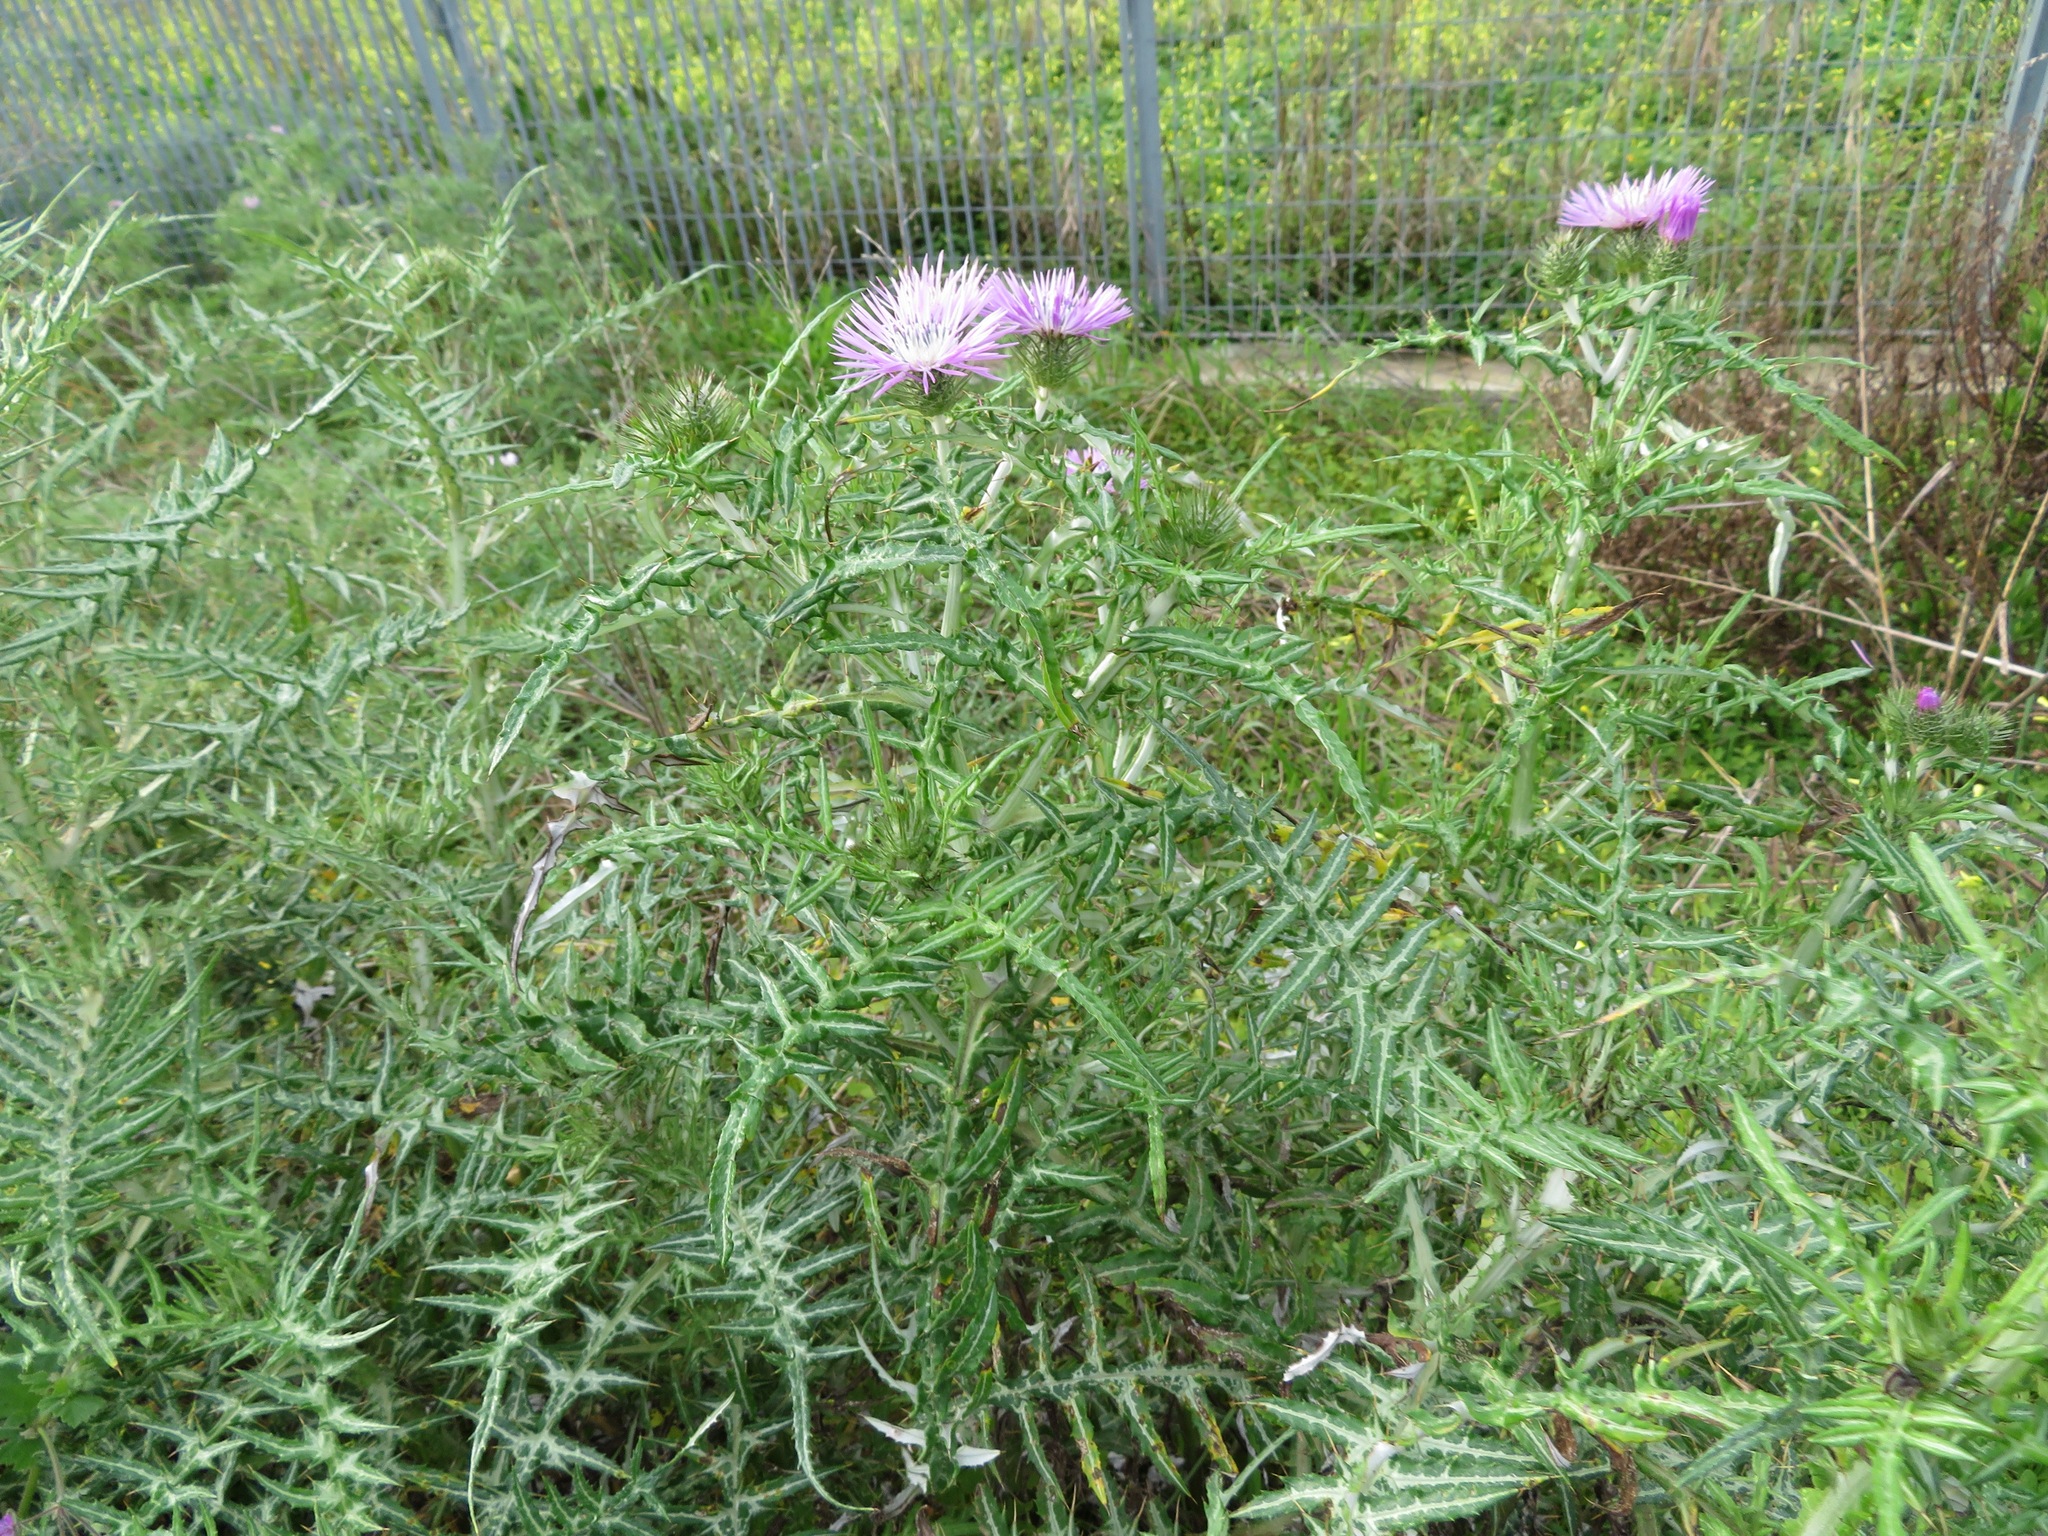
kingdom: Plantae
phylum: Tracheophyta
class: Magnoliopsida
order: Asterales
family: Asteraceae
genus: Galactites
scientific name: Galactites tomentosa
